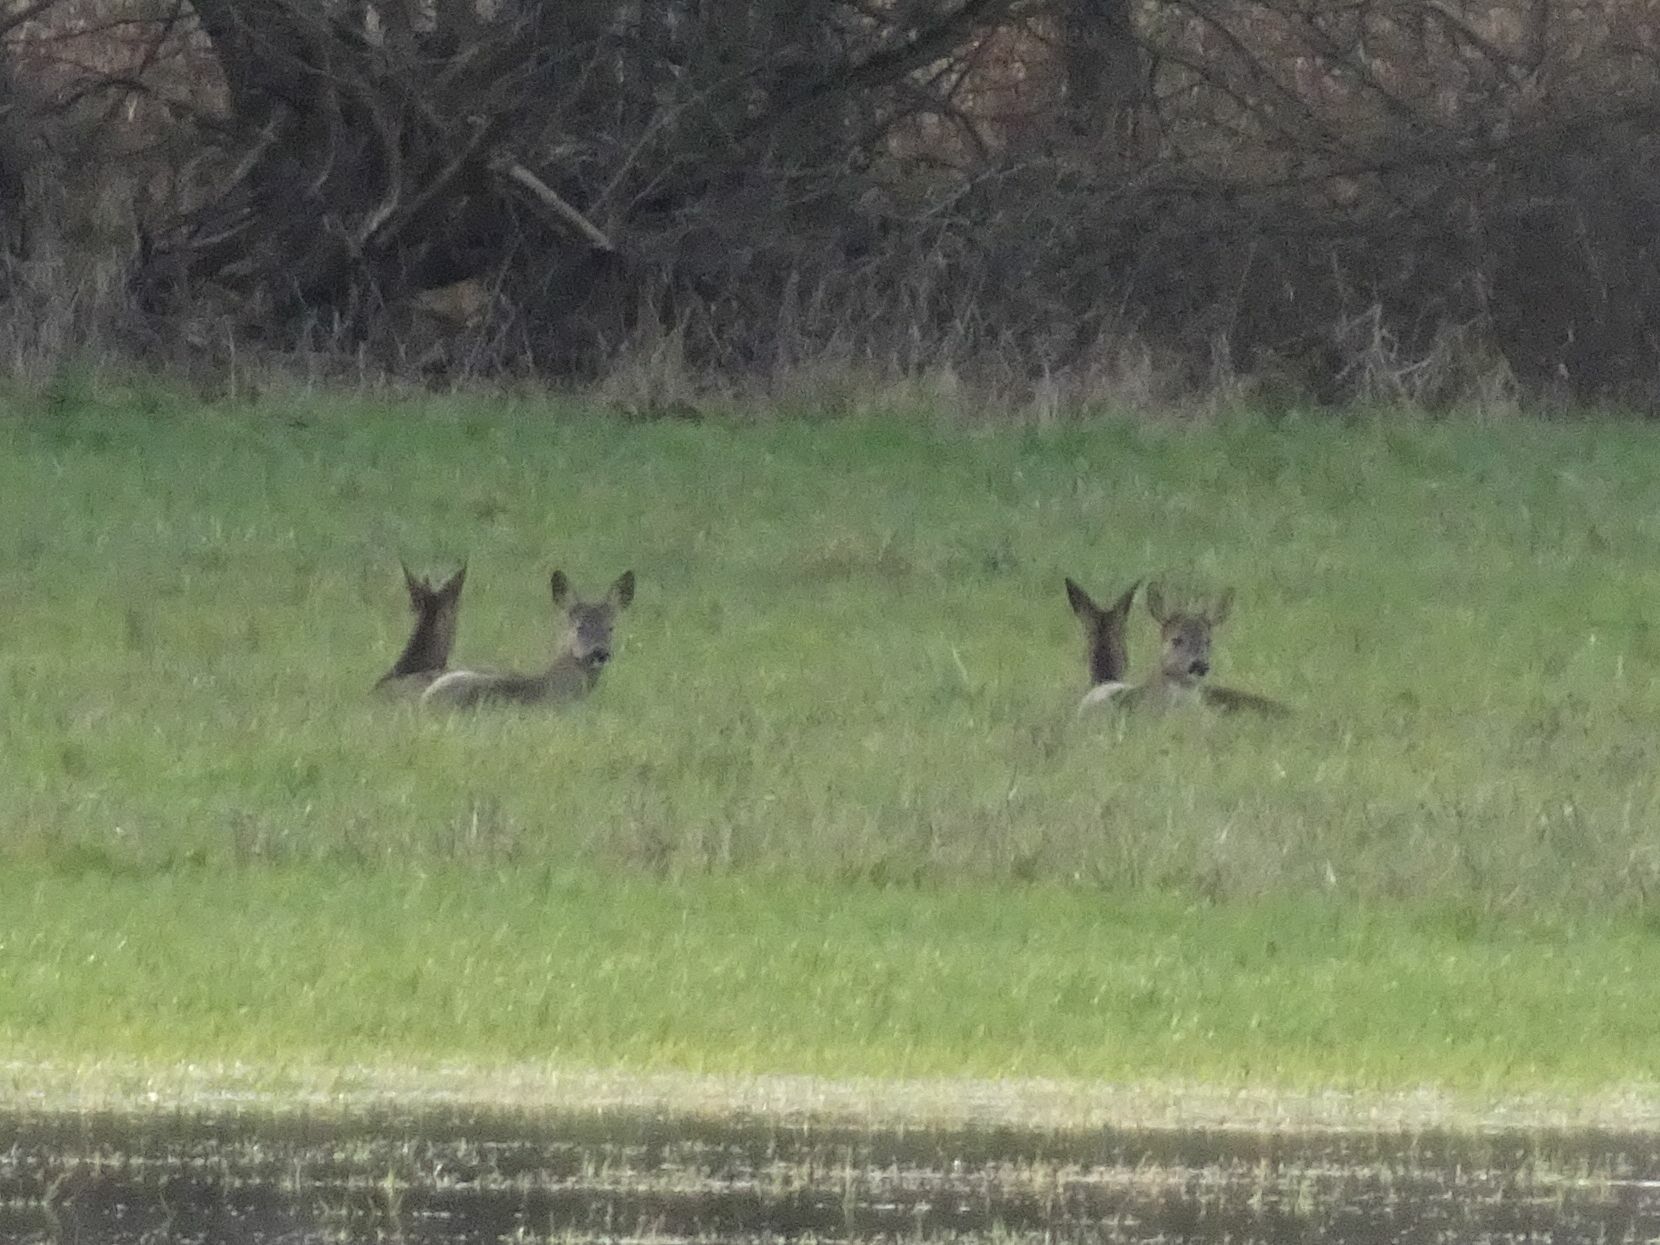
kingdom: Animalia
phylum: Chordata
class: Mammalia
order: Artiodactyla
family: Cervidae
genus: Capreolus
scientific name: Capreolus capreolus
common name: Western roe deer
